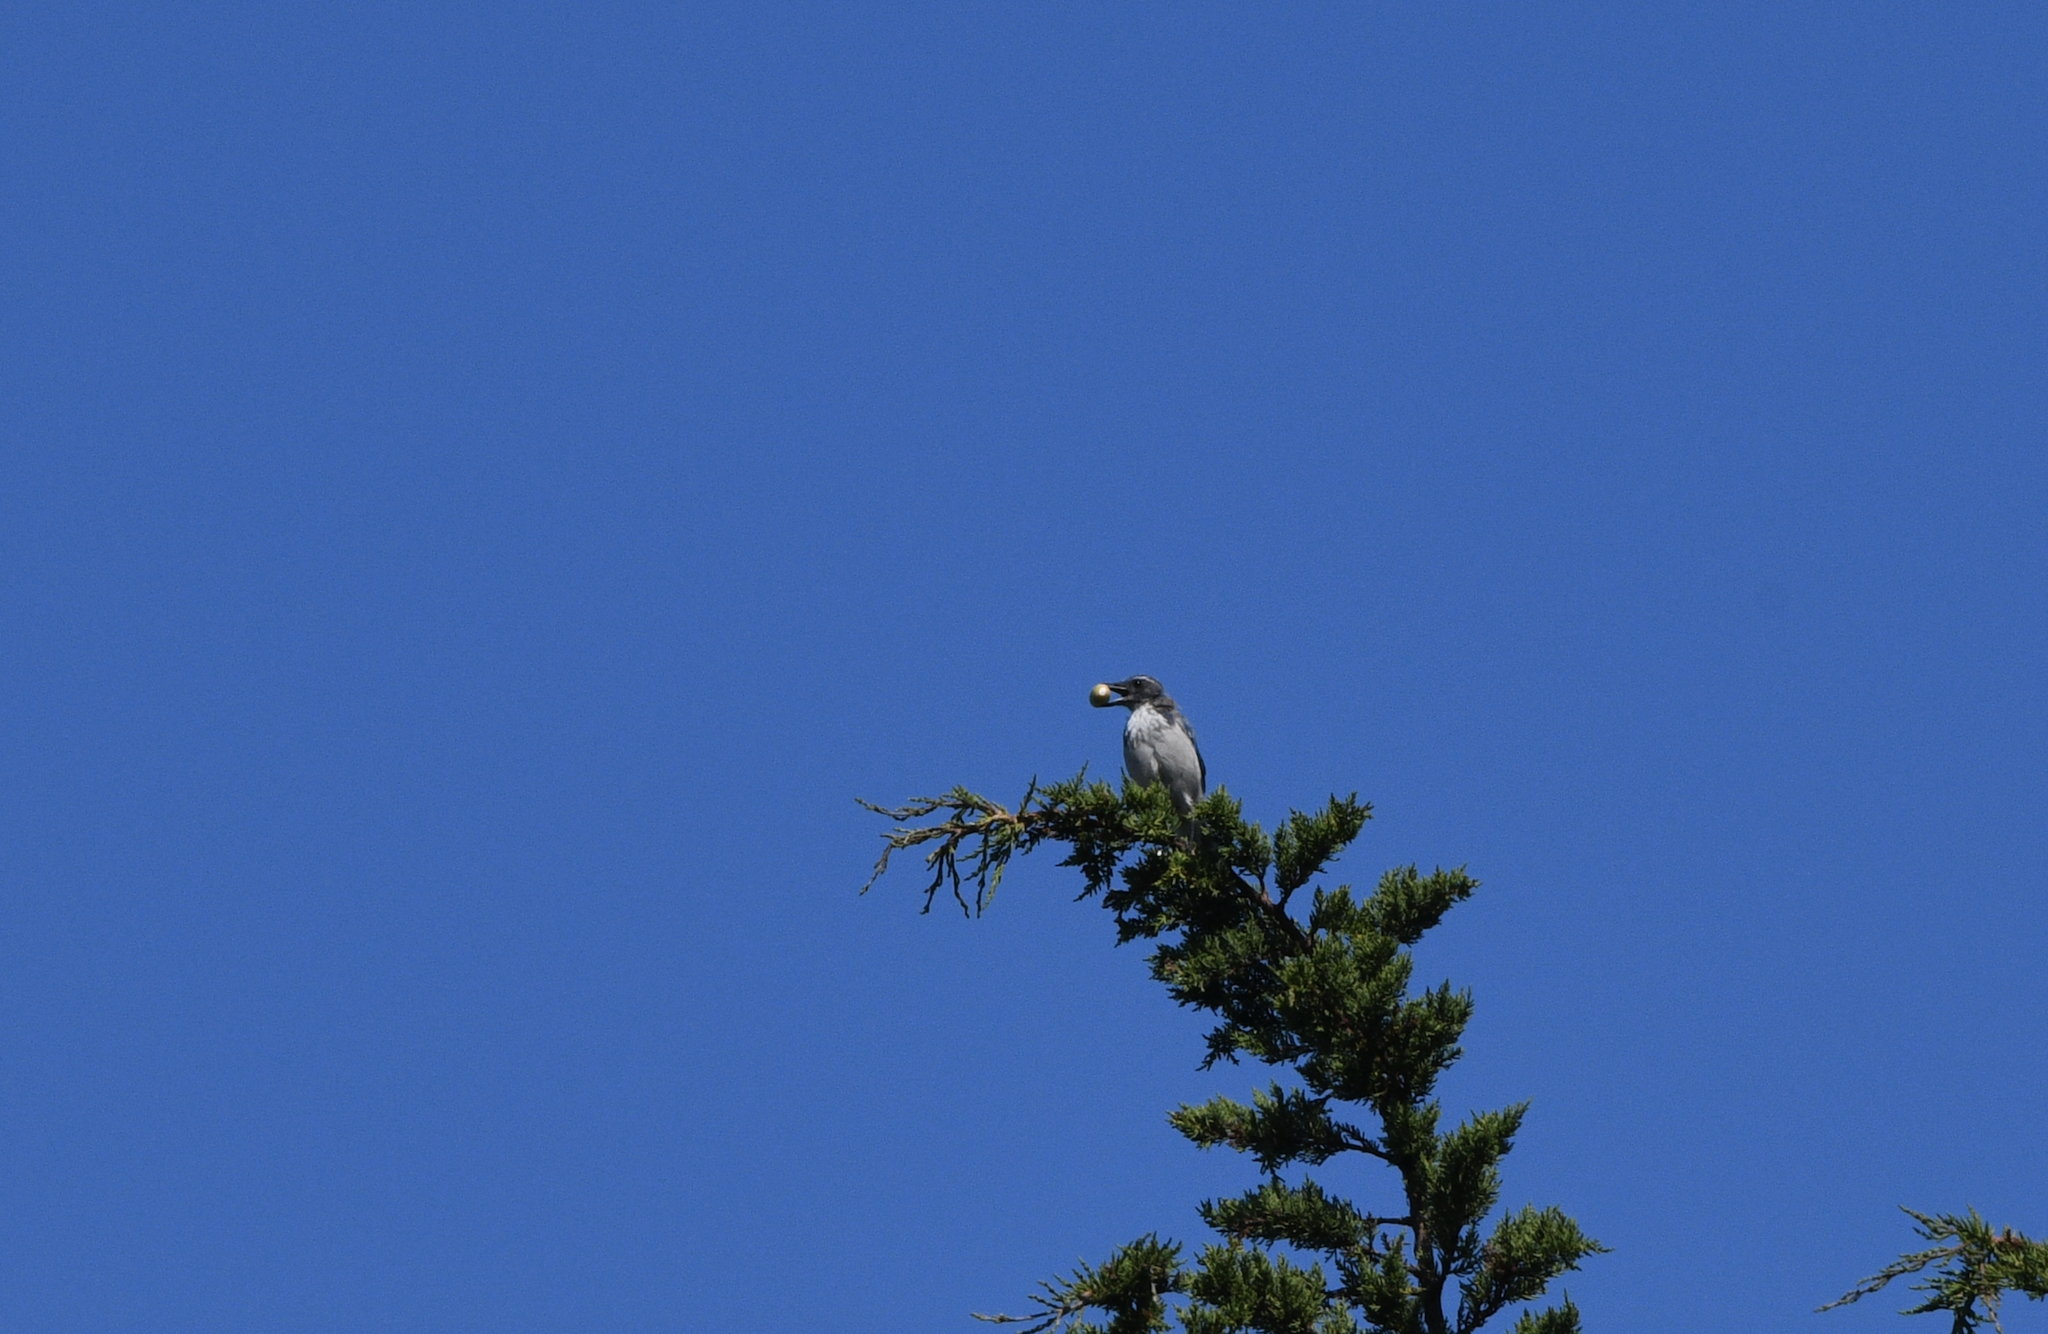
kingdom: Animalia
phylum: Chordata
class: Aves
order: Passeriformes
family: Corvidae
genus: Aphelocoma
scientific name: Aphelocoma californica
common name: California scrub-jay
